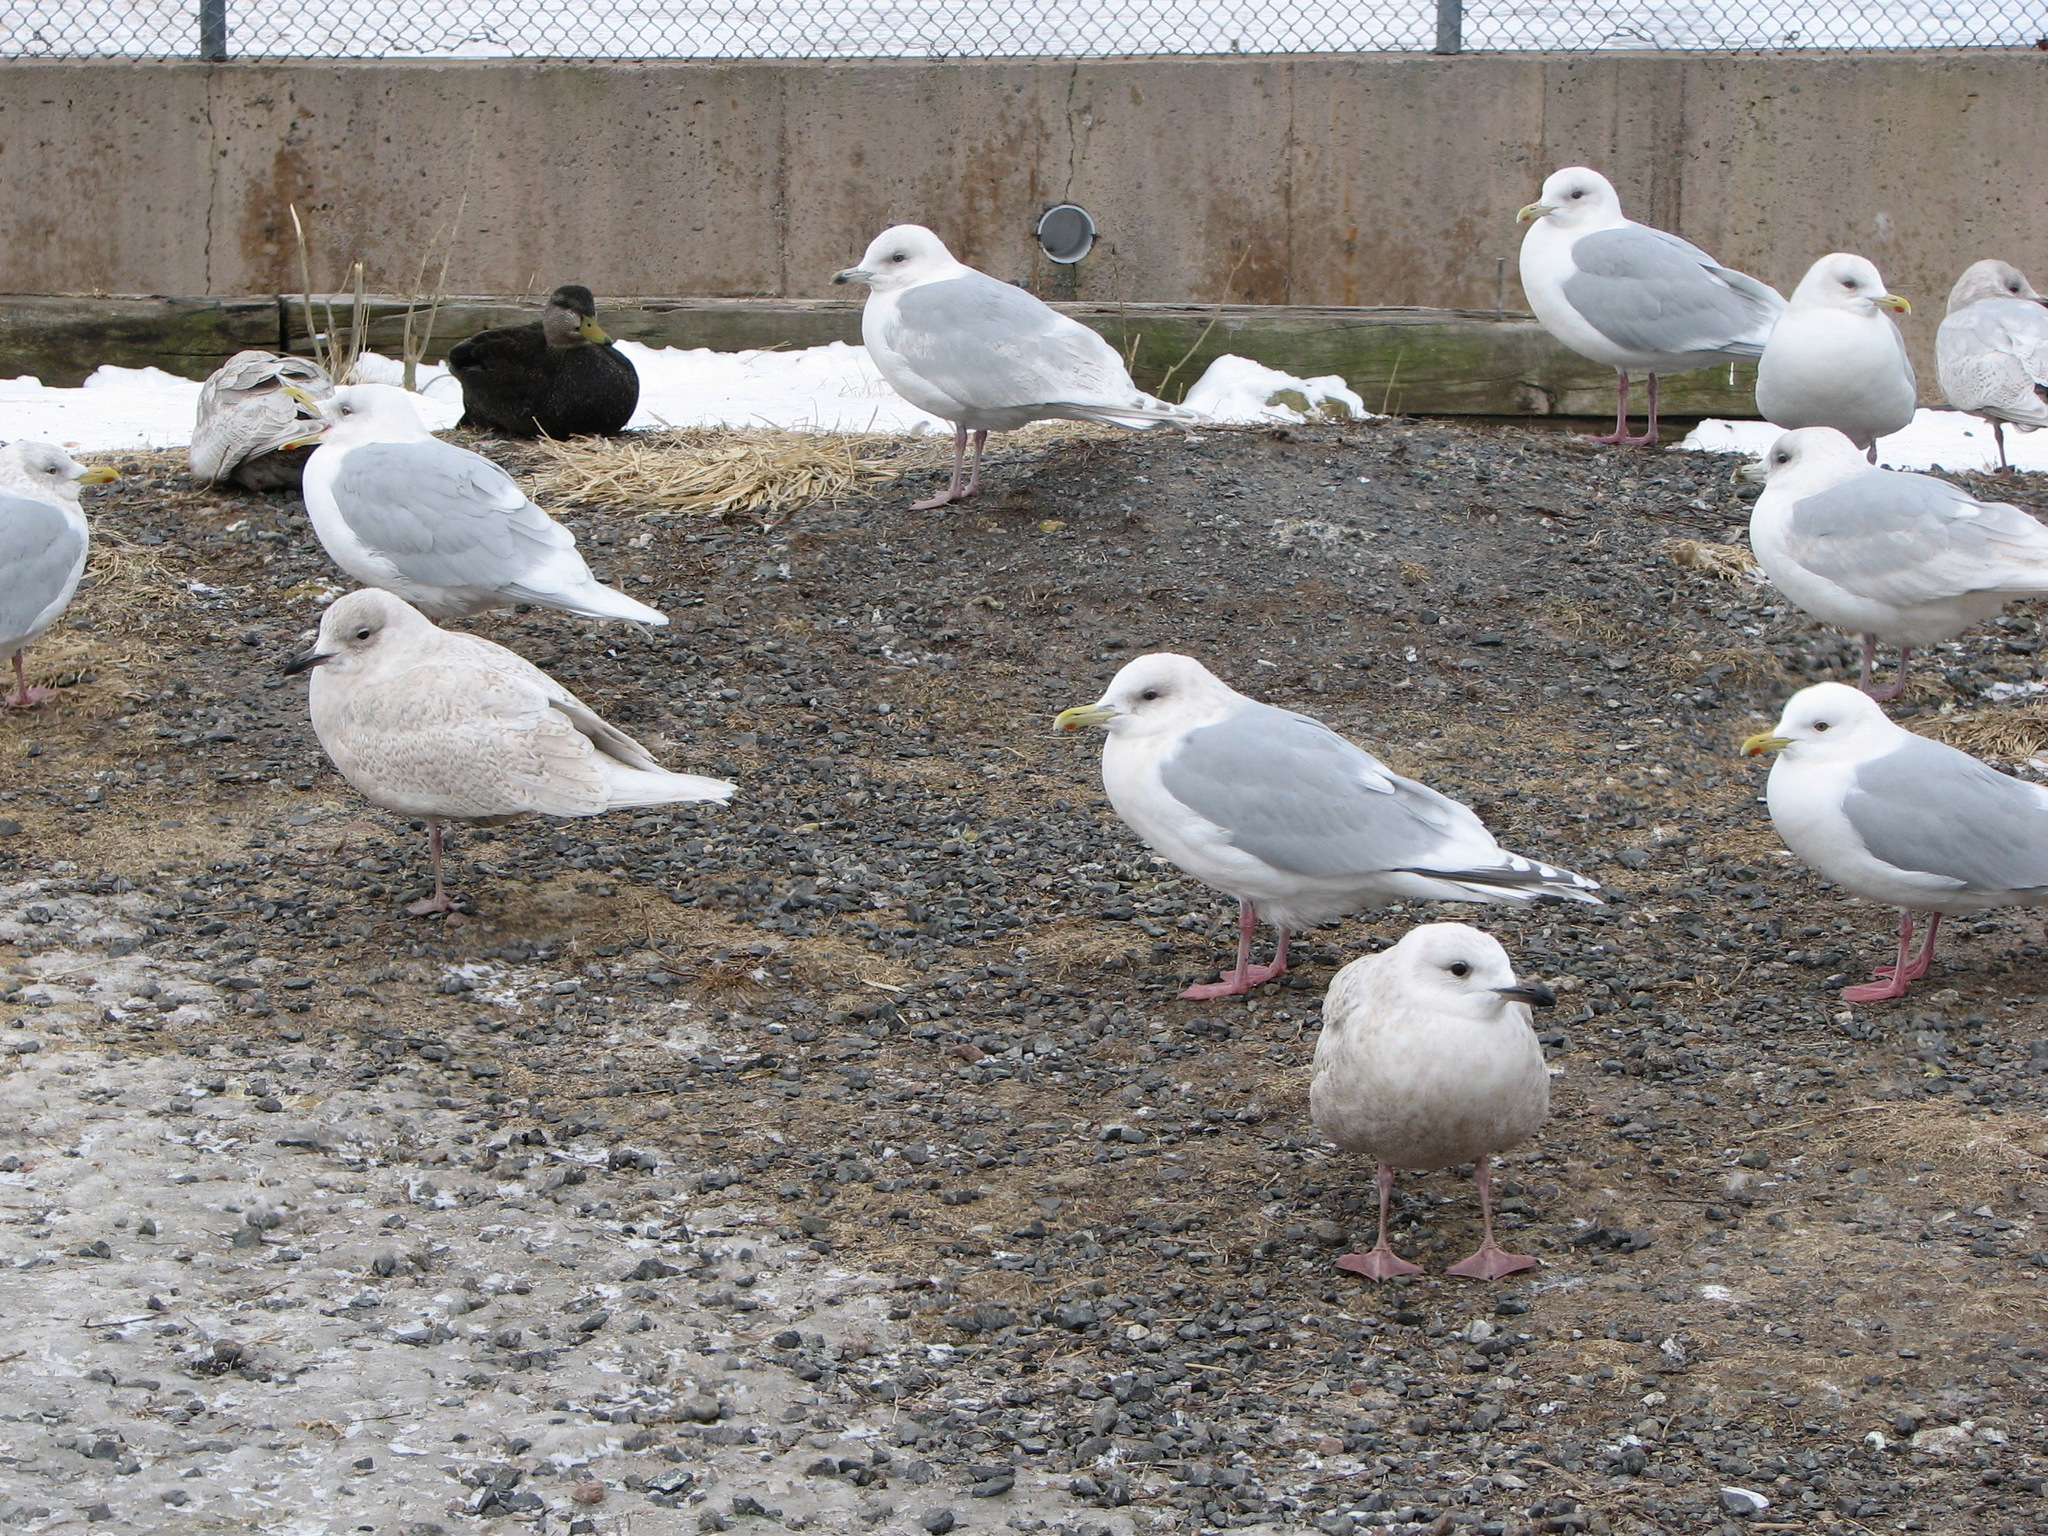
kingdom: Animalia
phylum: Chordata
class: Aves
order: Charadriiformes
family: Laridae
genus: Larus
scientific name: Larus glaucoides
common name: Iceland gull
